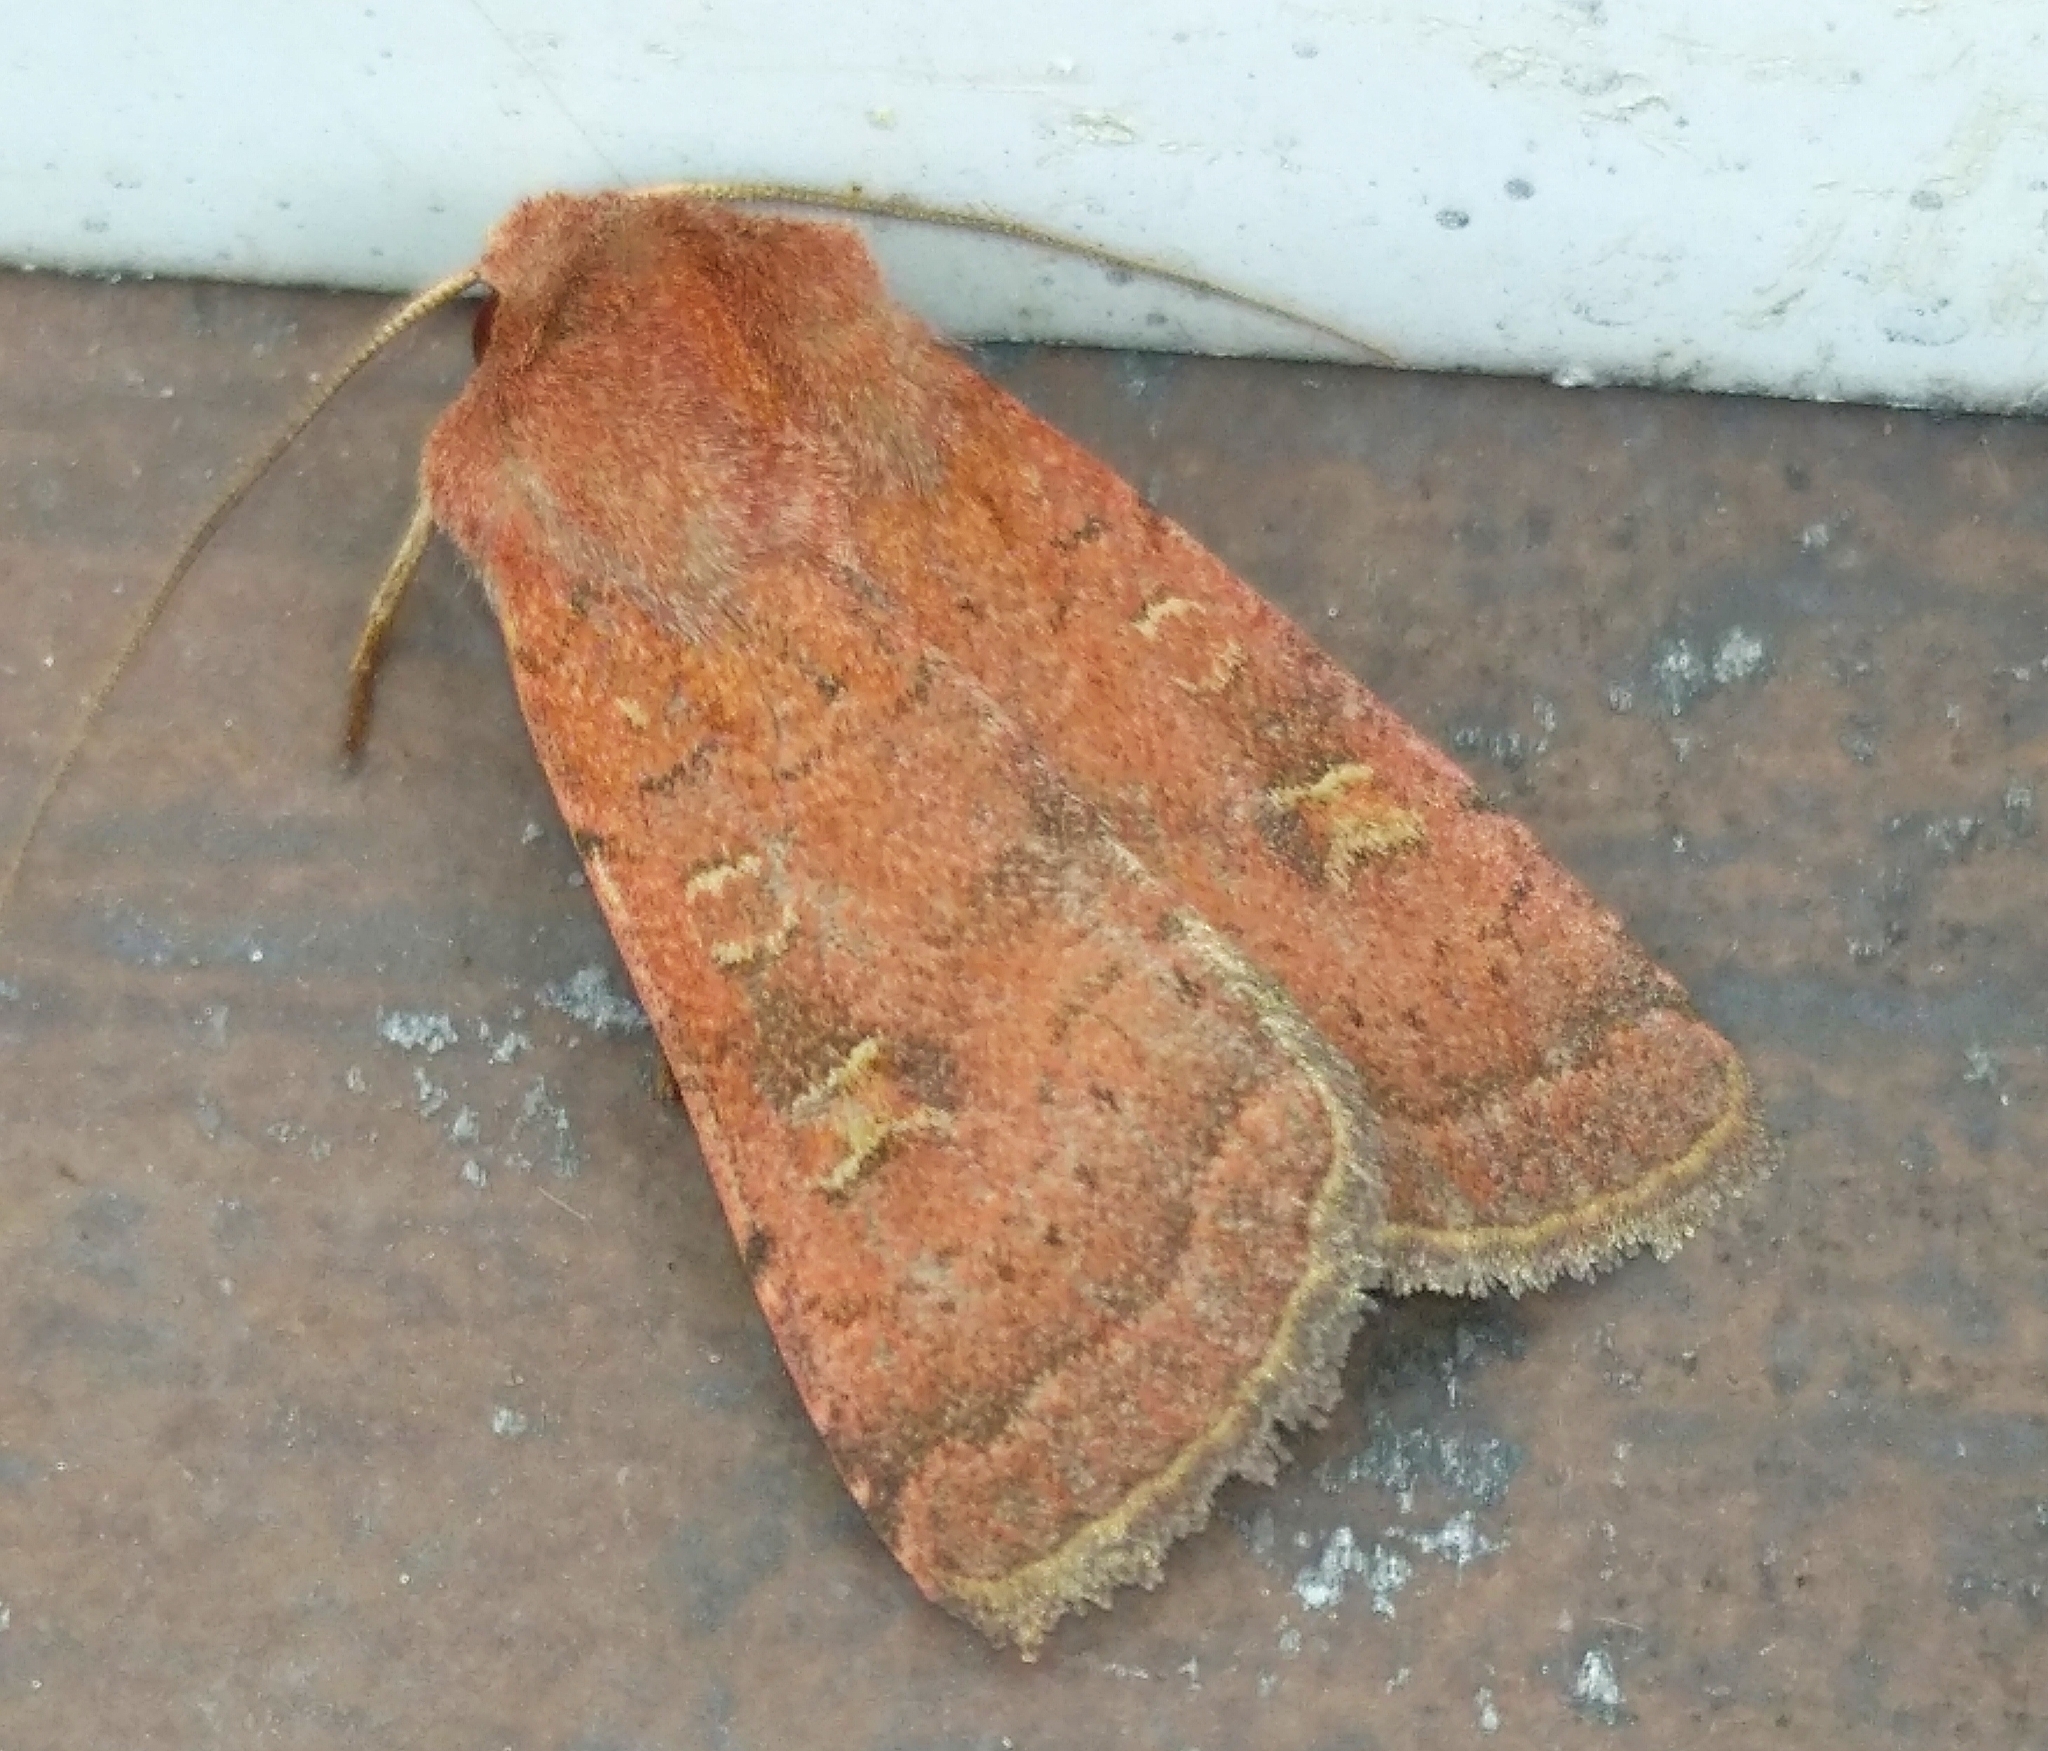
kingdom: Animalia
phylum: Arthropoda
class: Insecta
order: Lepidoptera
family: Noctuidae
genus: Xestia
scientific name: Xestia xanthographa
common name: Square-spot rustic
